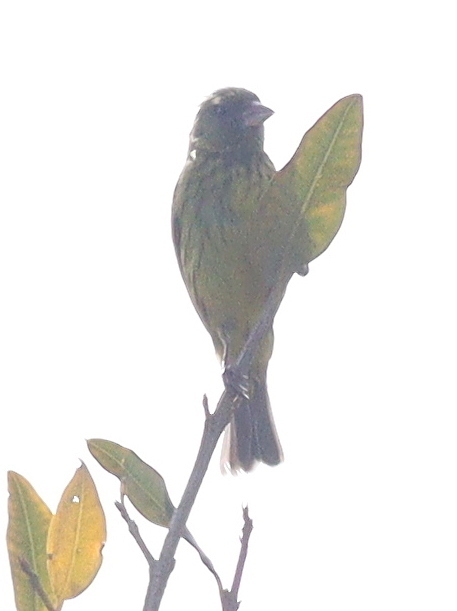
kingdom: Animalia
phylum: Chordata
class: Aves
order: Passeriformes
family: Fringillidae
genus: Crithagra
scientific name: Crithagra hyposticta
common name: Southern citril
